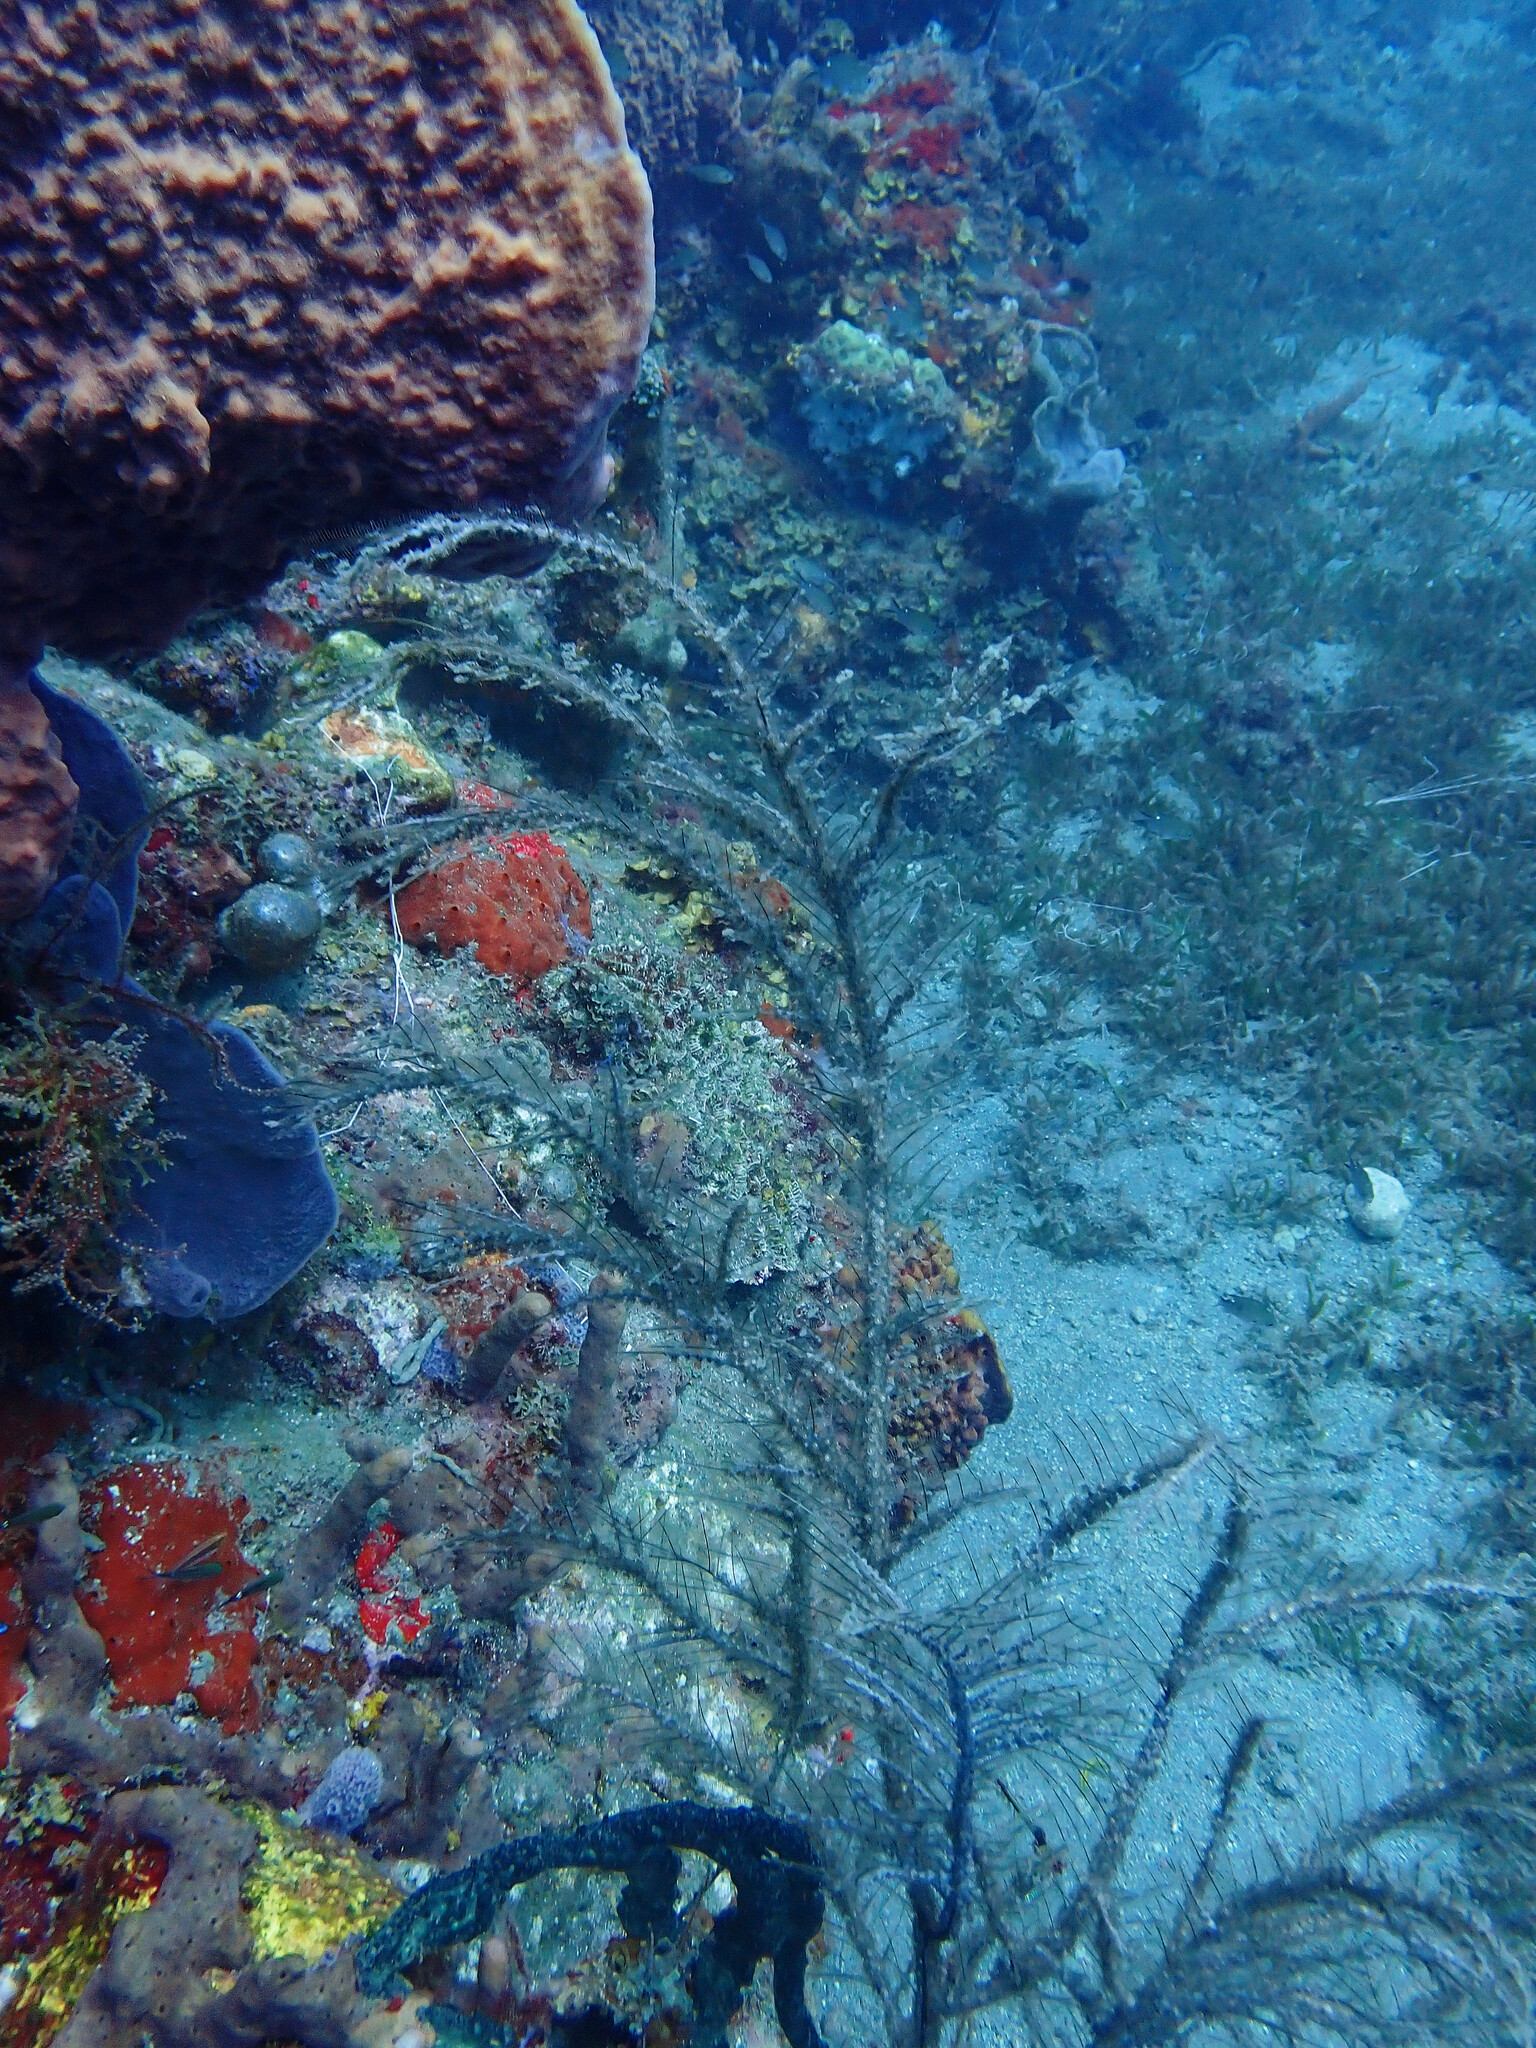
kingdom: Animalia
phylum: Cnidaria
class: Anthozoa
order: Zoantharia
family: Hydrozoanthidae
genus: Hydrozoanthus
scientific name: Hydrozoanthus tunicans
